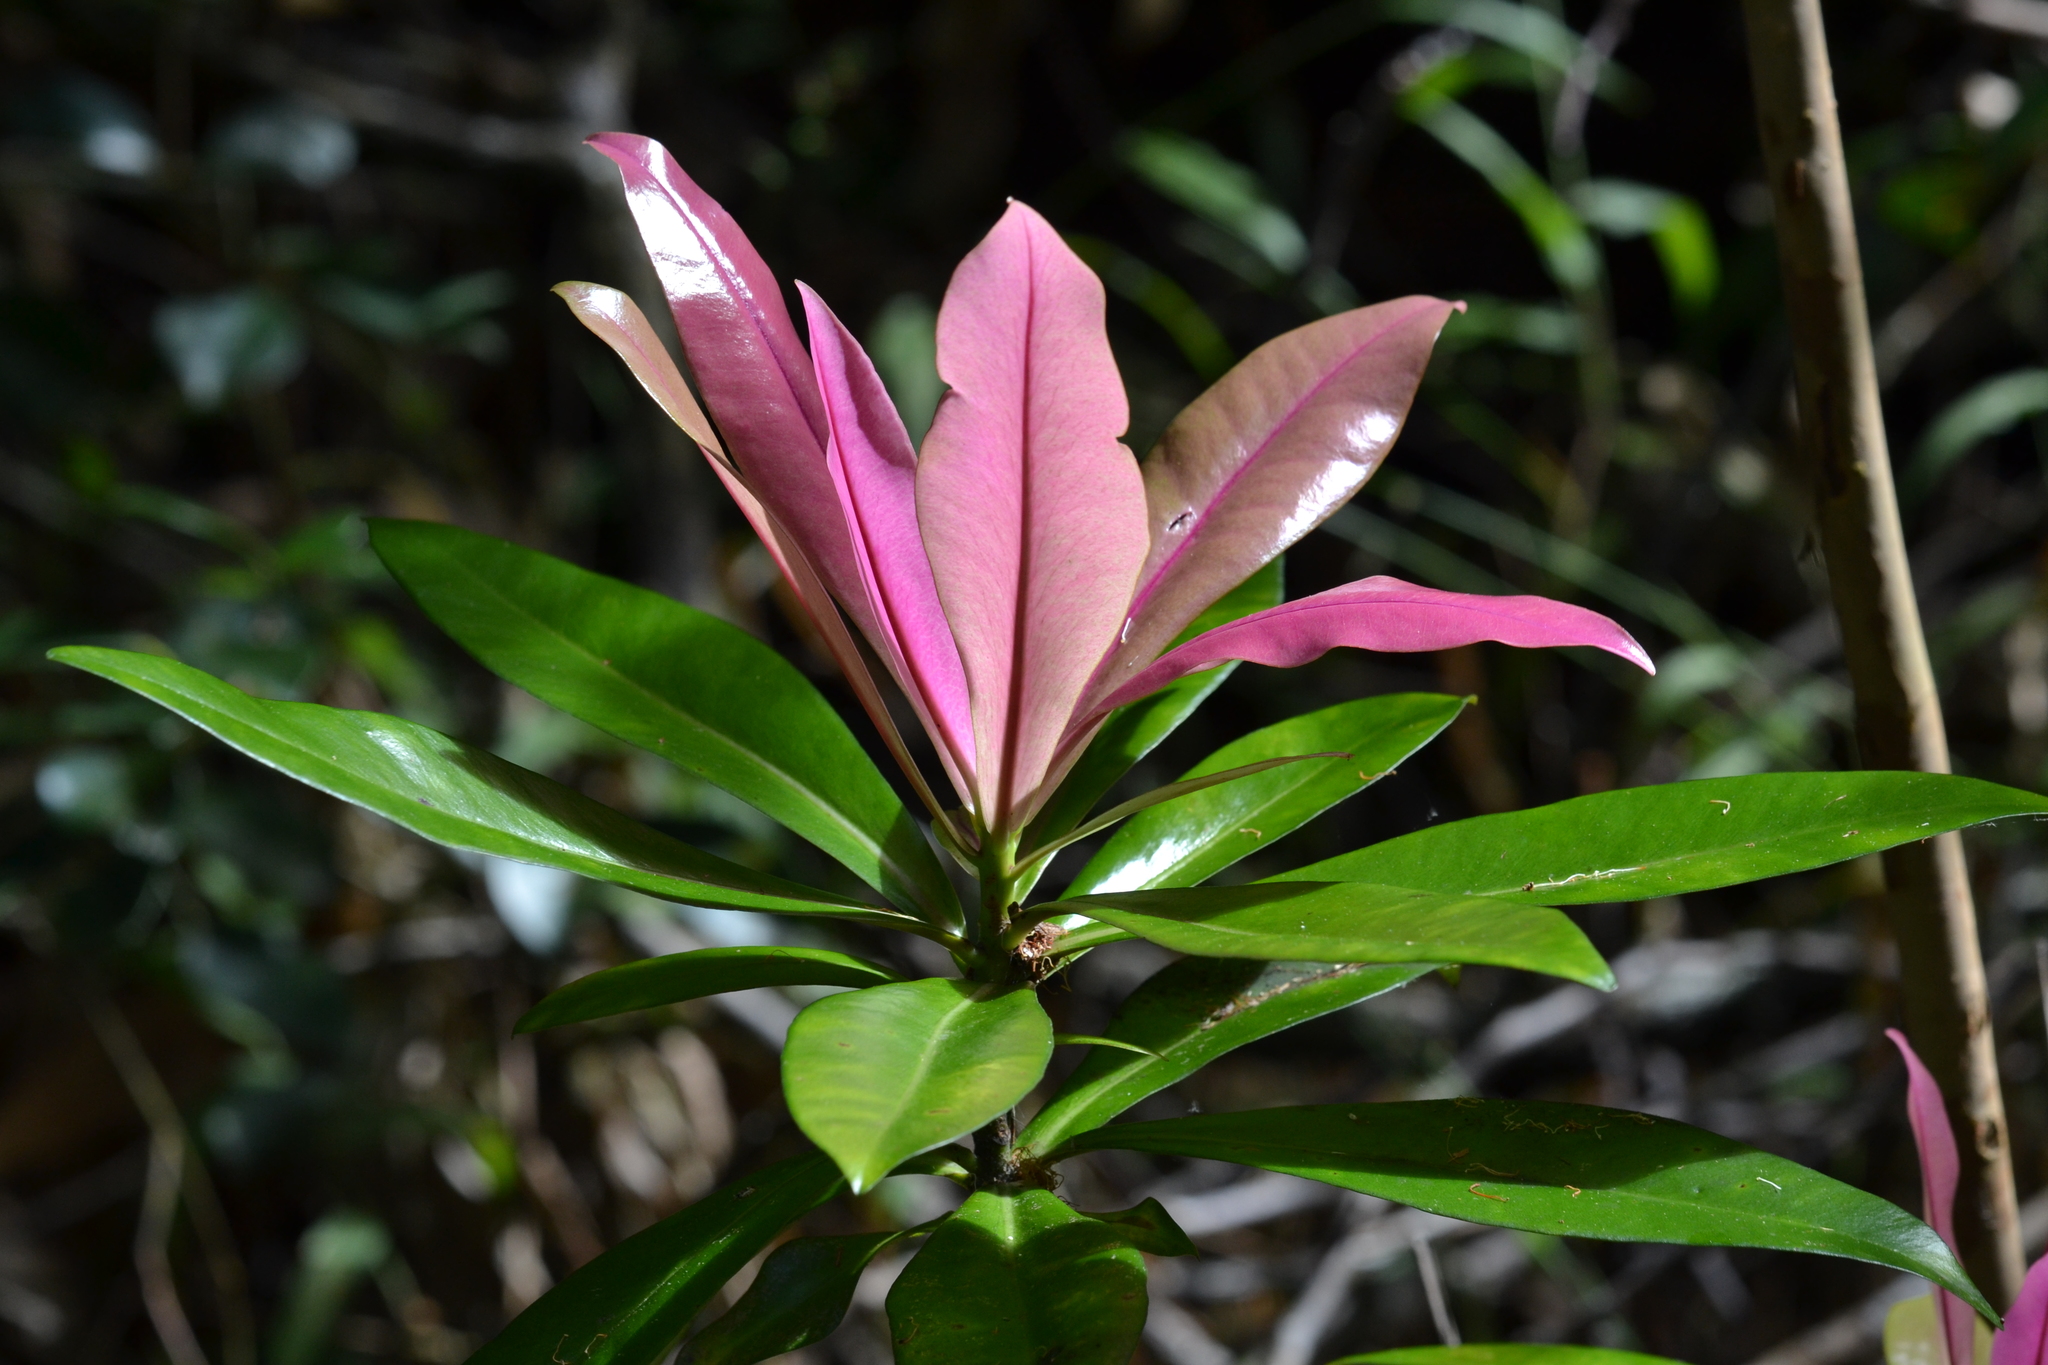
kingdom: Plantae
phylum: Tracheophyta
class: Magnoliopsida
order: Ericales
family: Primulaceae
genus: Myrsine
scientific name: Myrsine lessertiana
